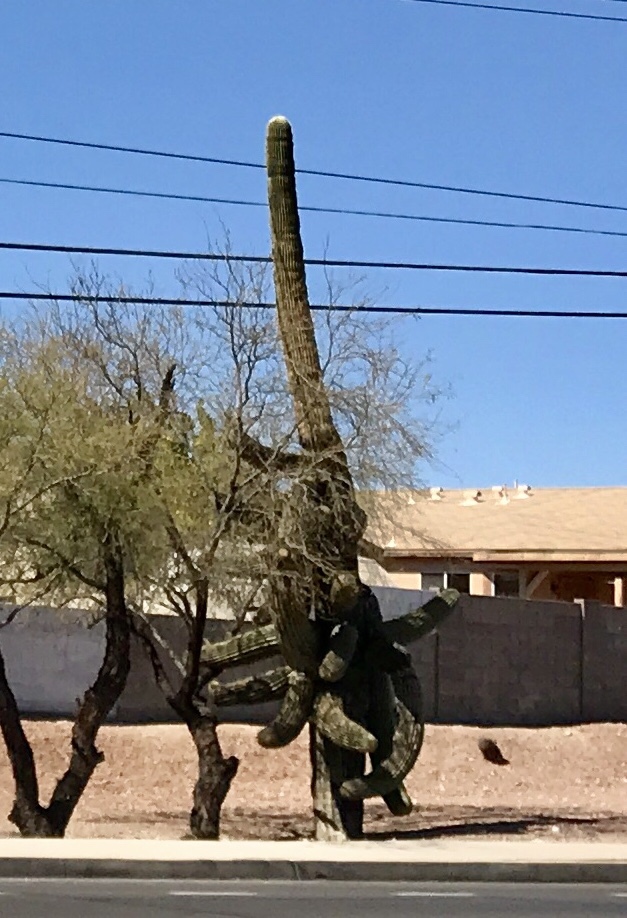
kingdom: Plantae
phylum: Tracheophyta
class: Magnoliopsida
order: Caryophyllales
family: Cactaceae
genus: Carnegiea
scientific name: Carnegiea gigantea
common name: Saguaro
